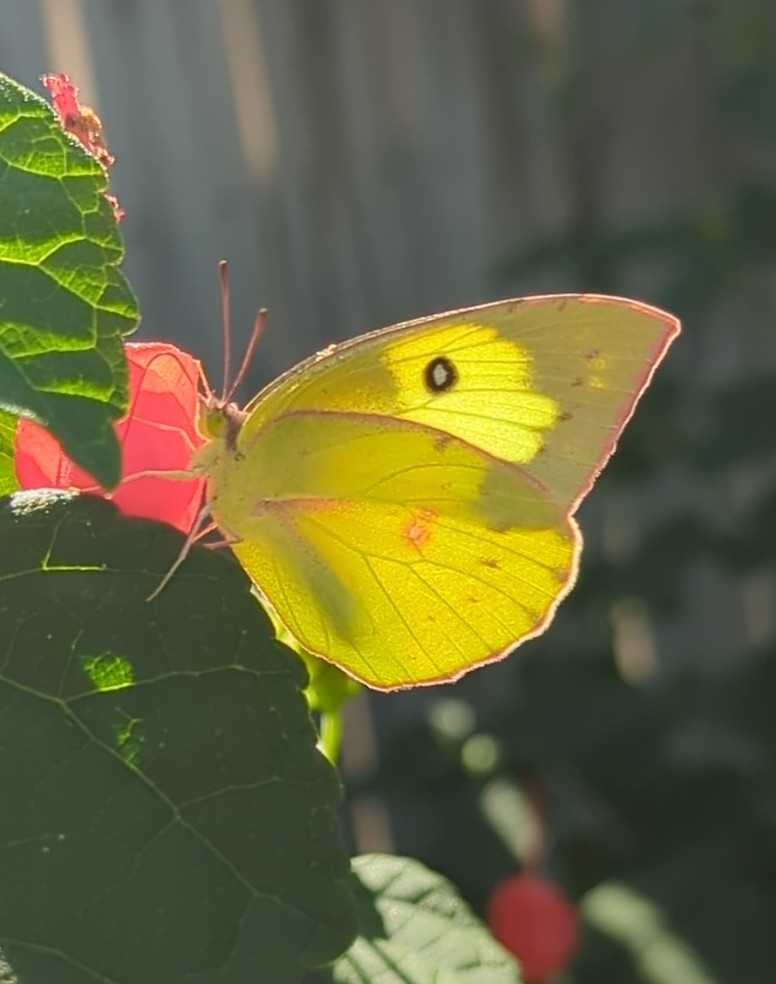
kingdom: Animalia
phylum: Arthropoda
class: Insecta
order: Lepidoptera
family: Pieridae
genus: Zerene
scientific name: Zerene cesonia
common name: Southern dogface
